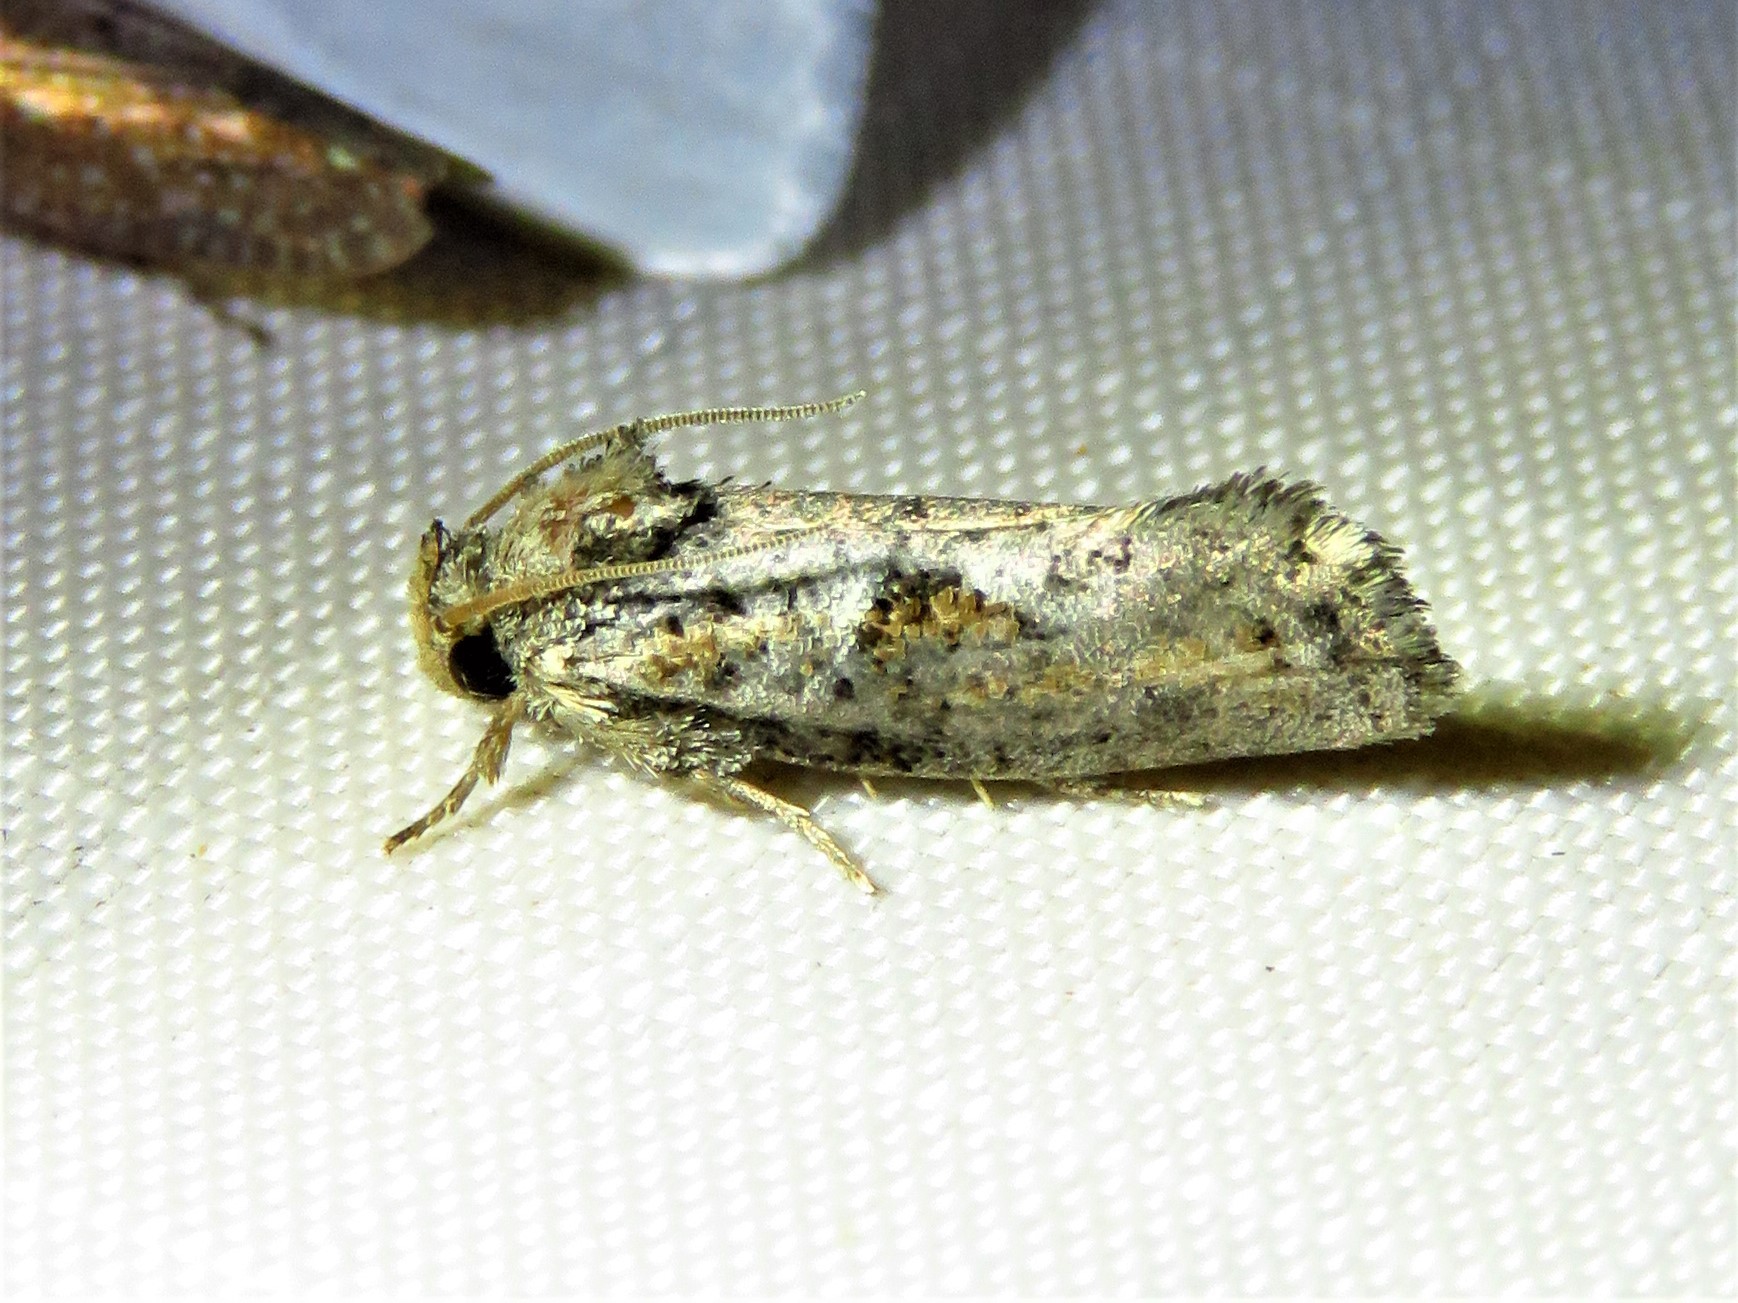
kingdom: Animalia
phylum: Arthropoda
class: Insecta
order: Lepidoptera
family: Tineidae
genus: Acrolophus
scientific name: Acrolophus piger
